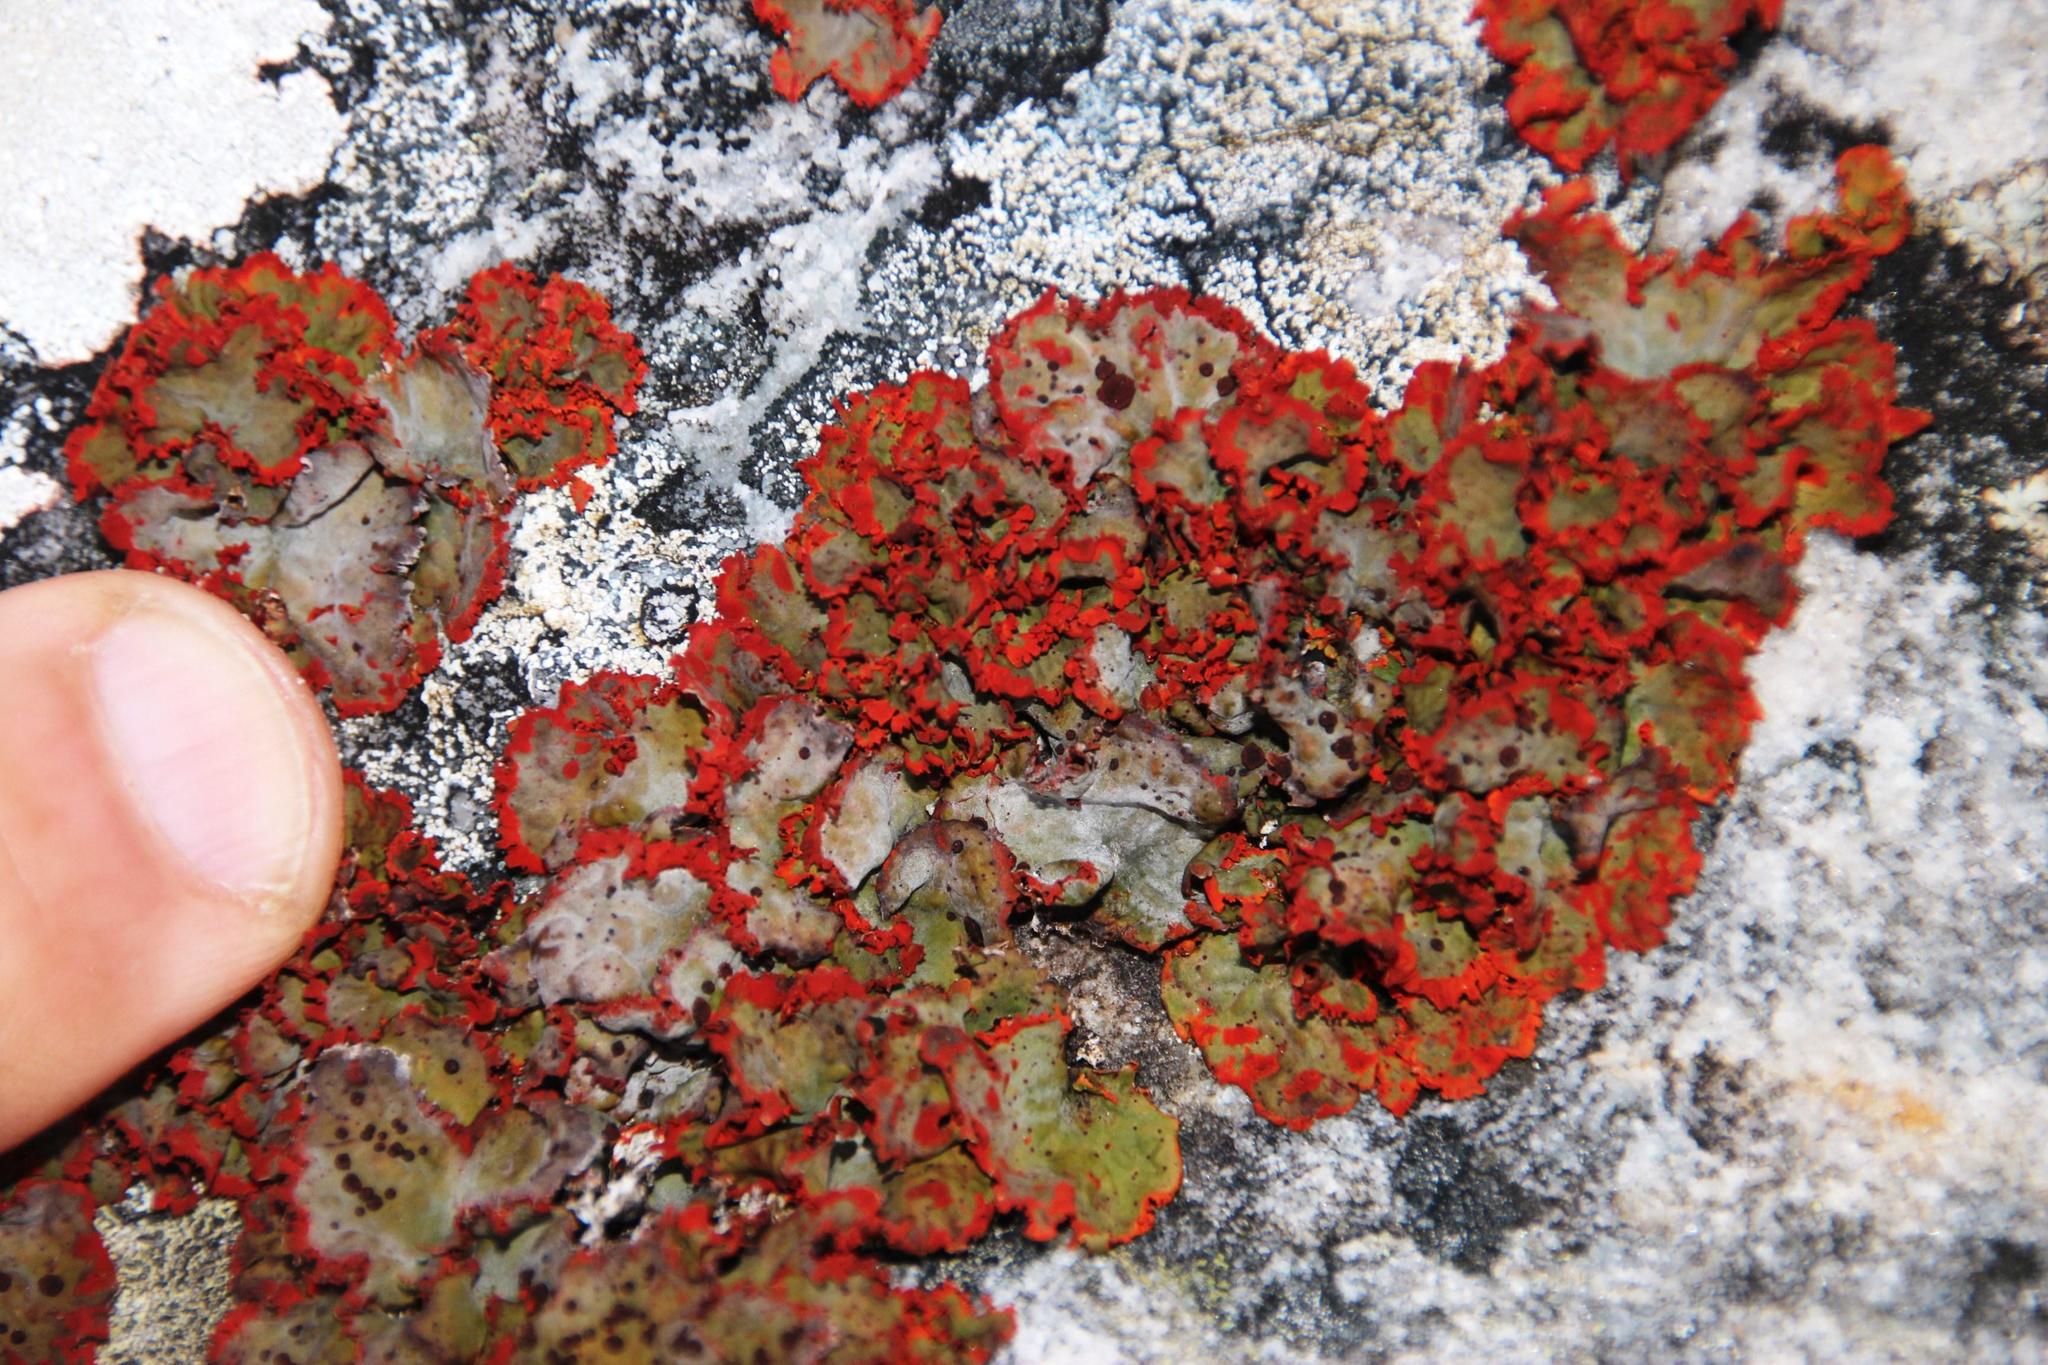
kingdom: Fungi
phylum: Ascomycota
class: Lecanoromycetes
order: Umbilicariales
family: Umbilicariaceae
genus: Lasallia
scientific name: Lasallia rubiginosa
